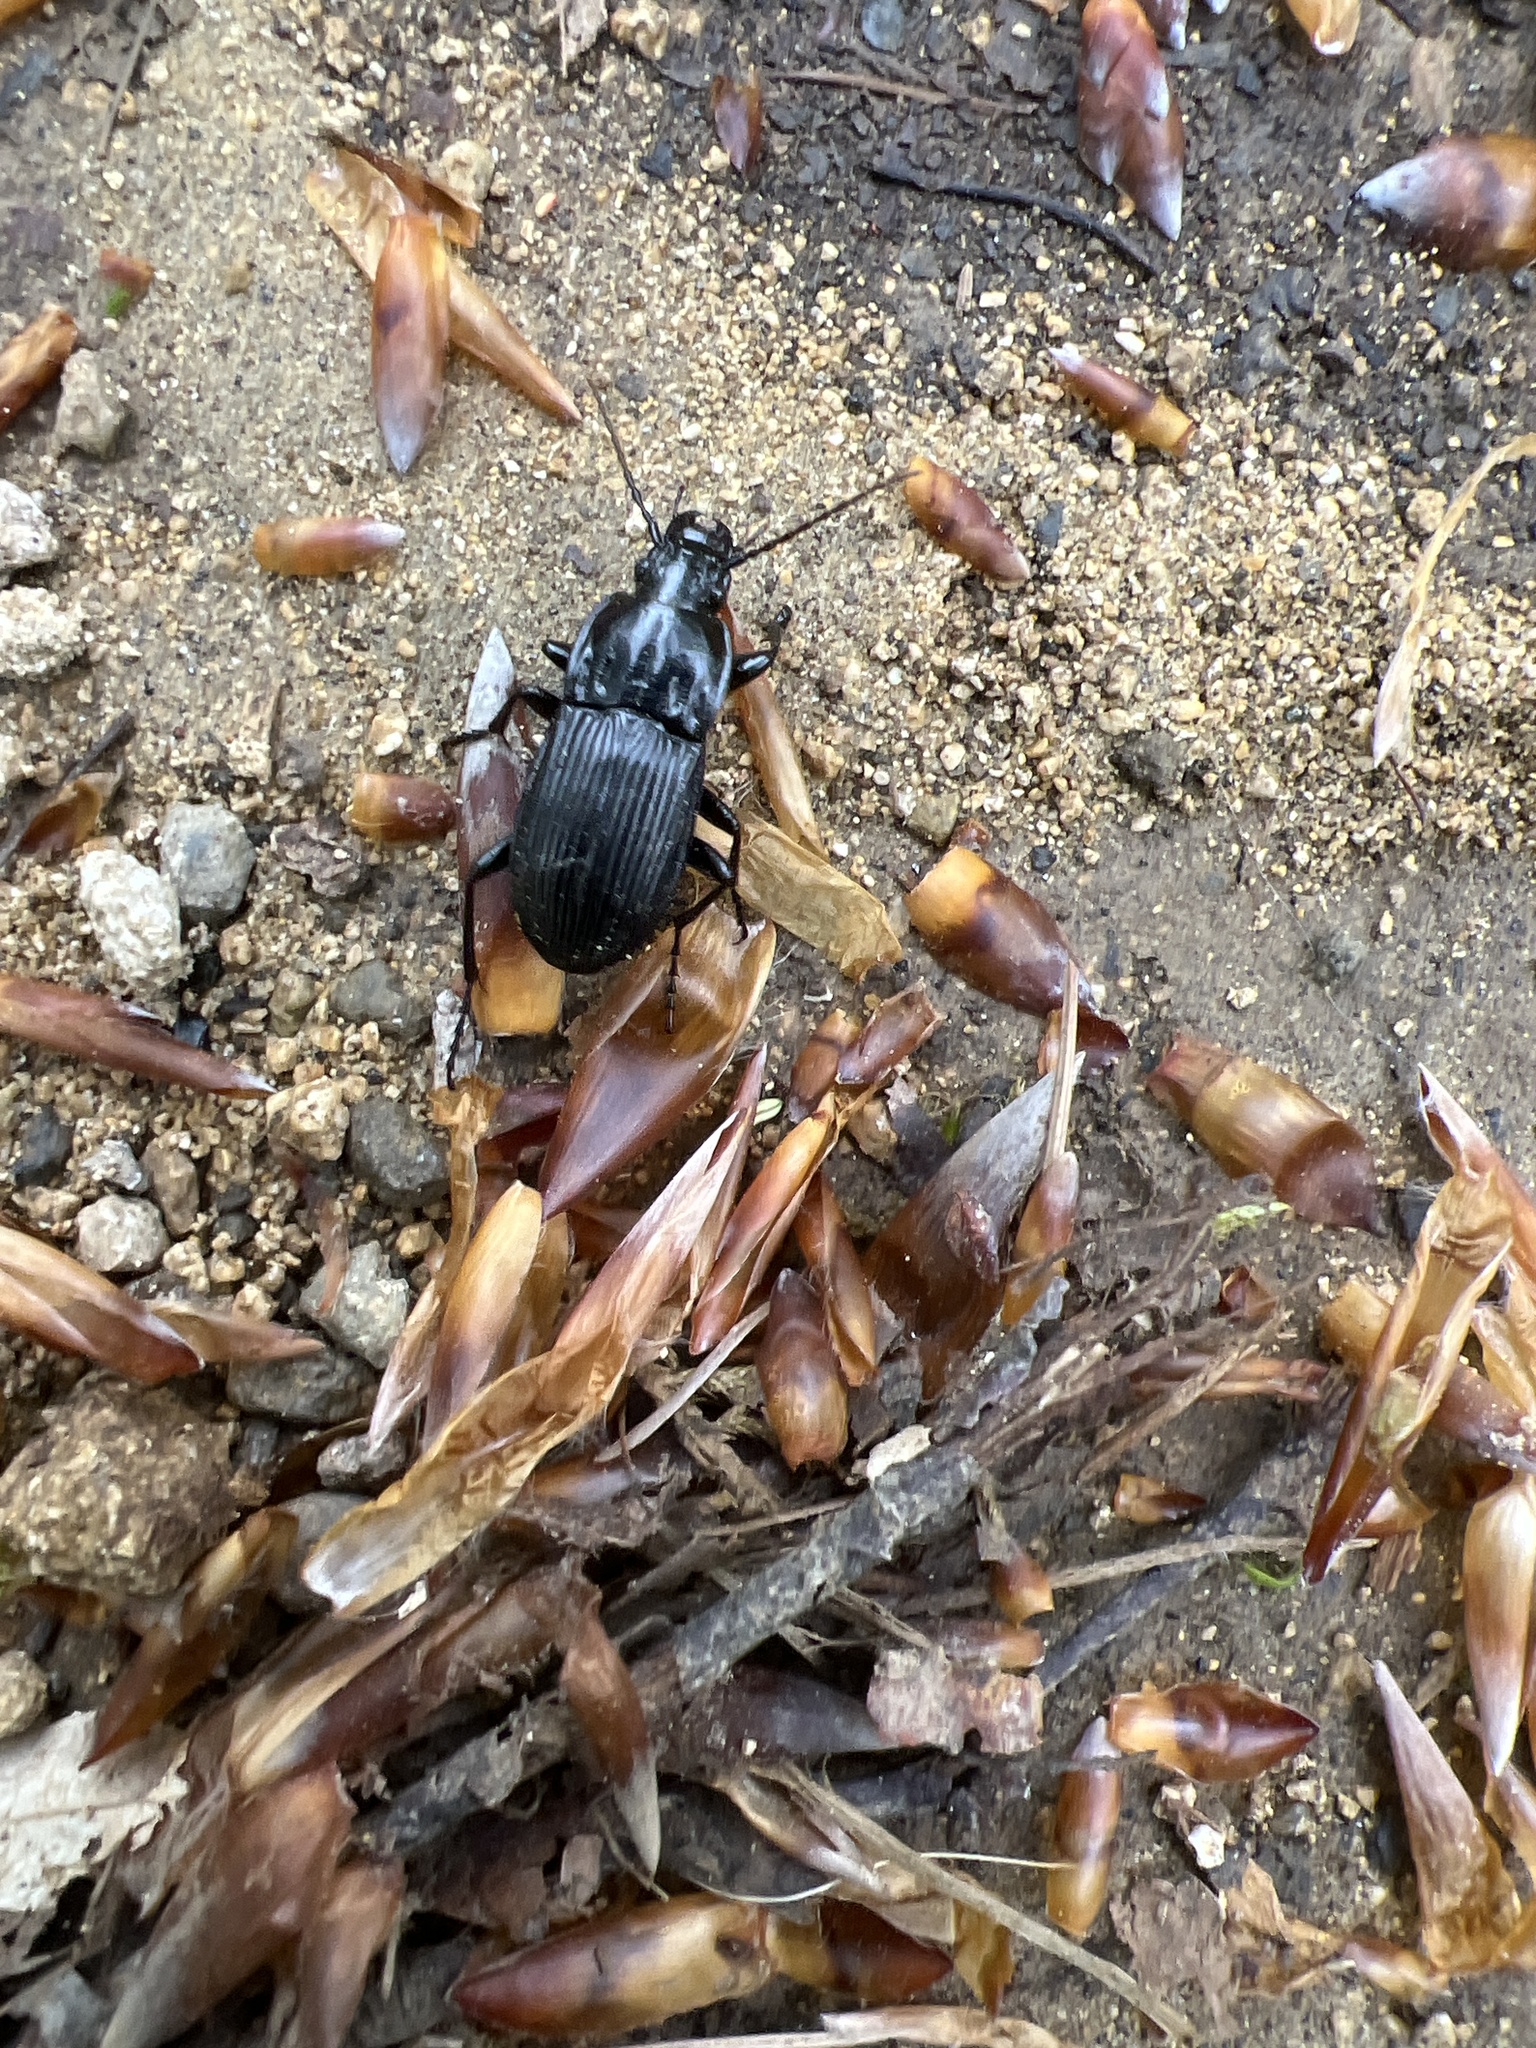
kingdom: Animalia
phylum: Arthropoda
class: Insecta
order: Coleoptera
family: Carabidae
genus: Abax
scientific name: Abax parallelepipedus
